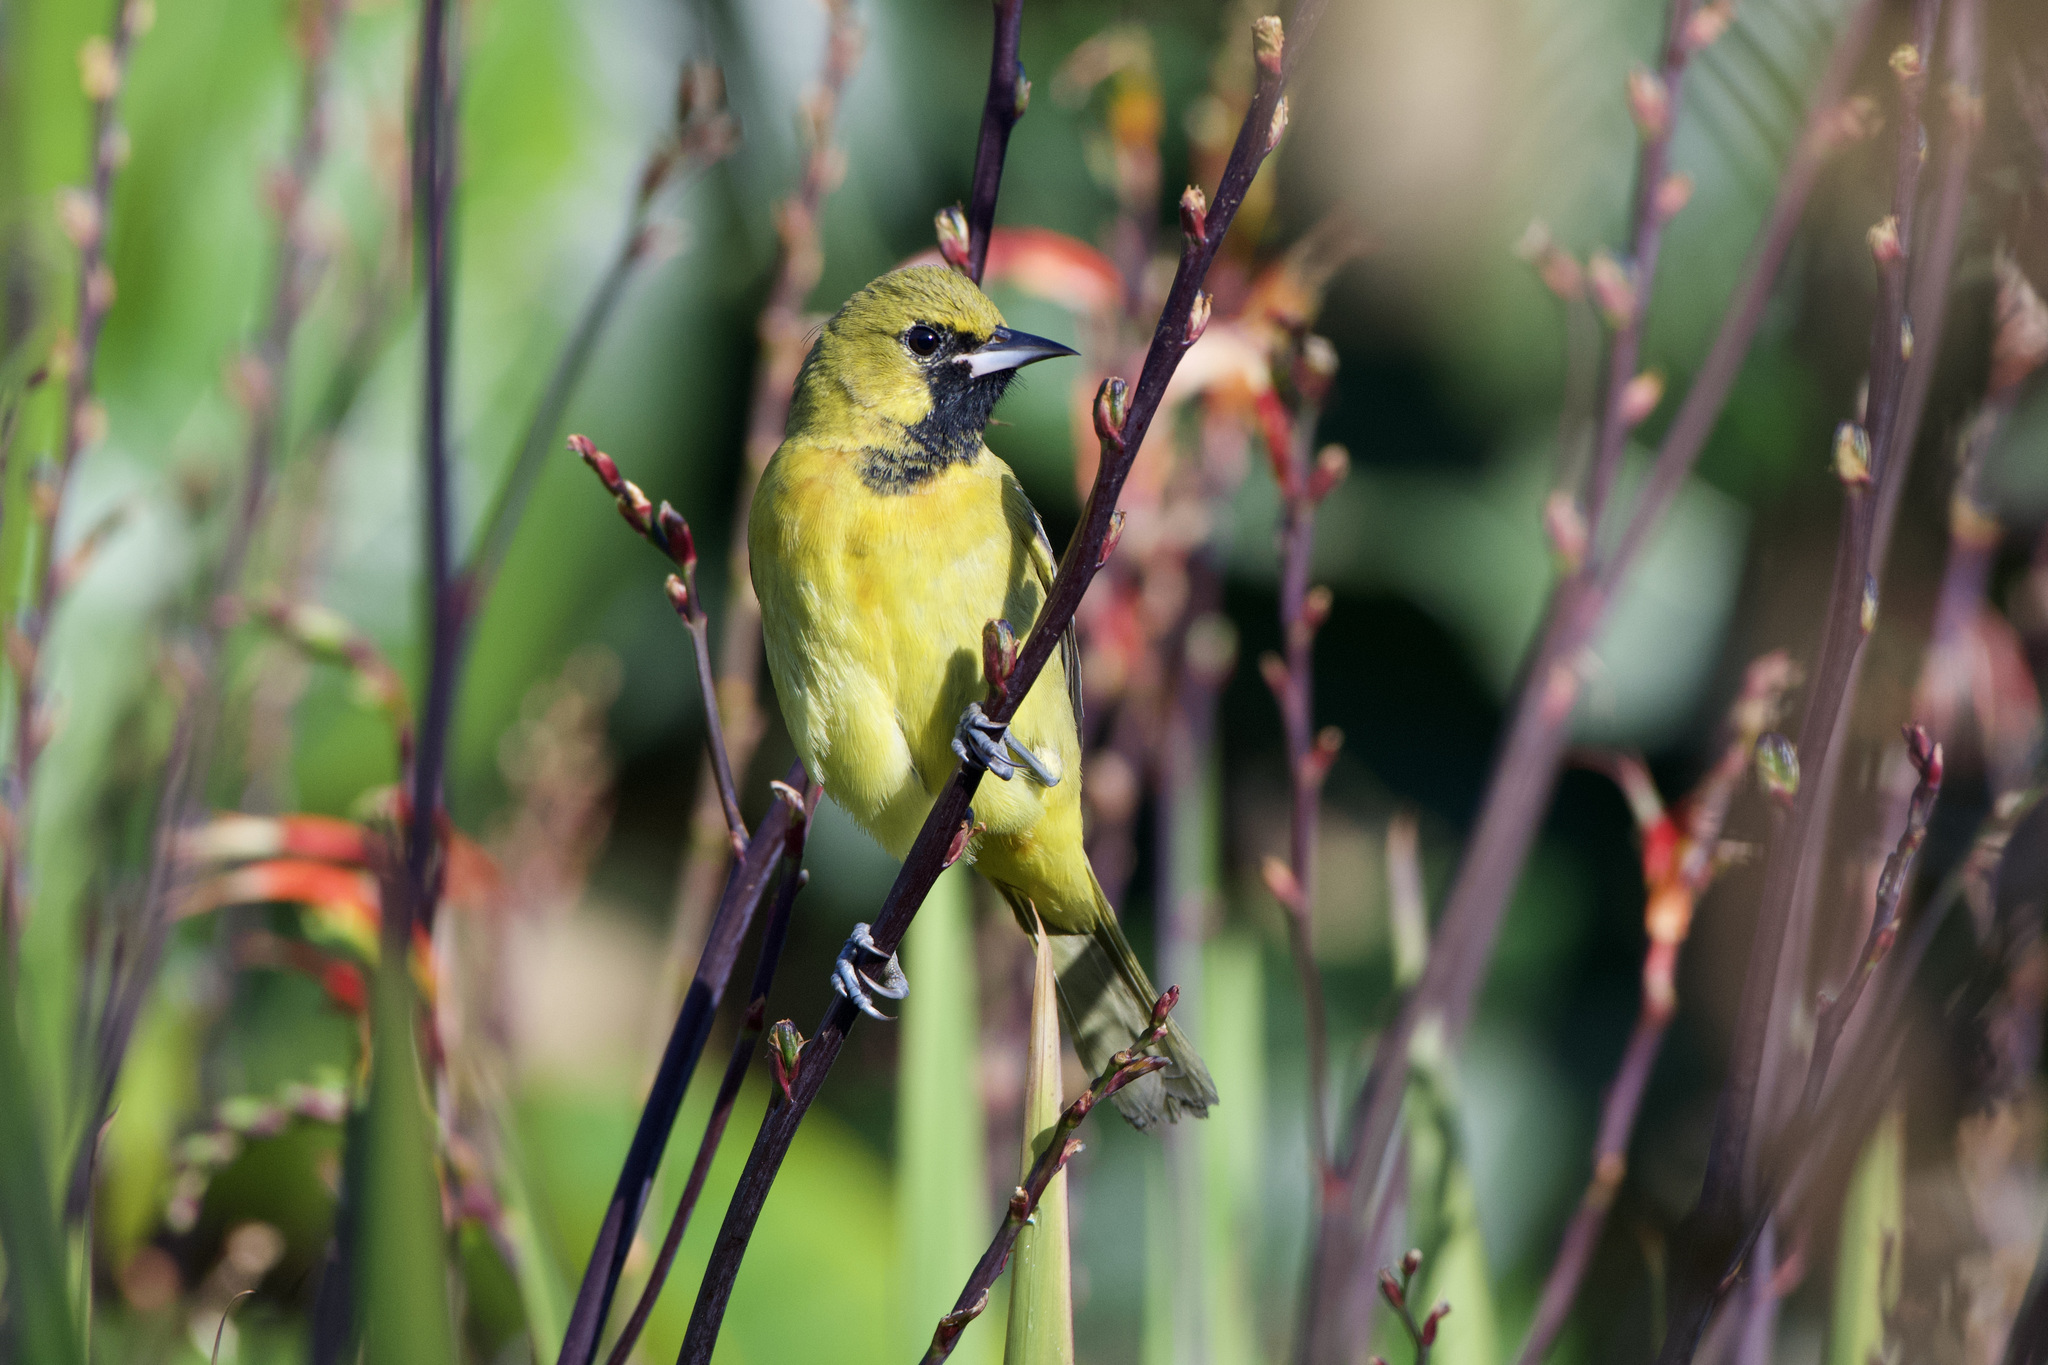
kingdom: Animalia
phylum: Chordata
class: Aves
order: Passeriformes
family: Icteridae
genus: Icterus
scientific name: Icterus spurius
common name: Orchard oriole
